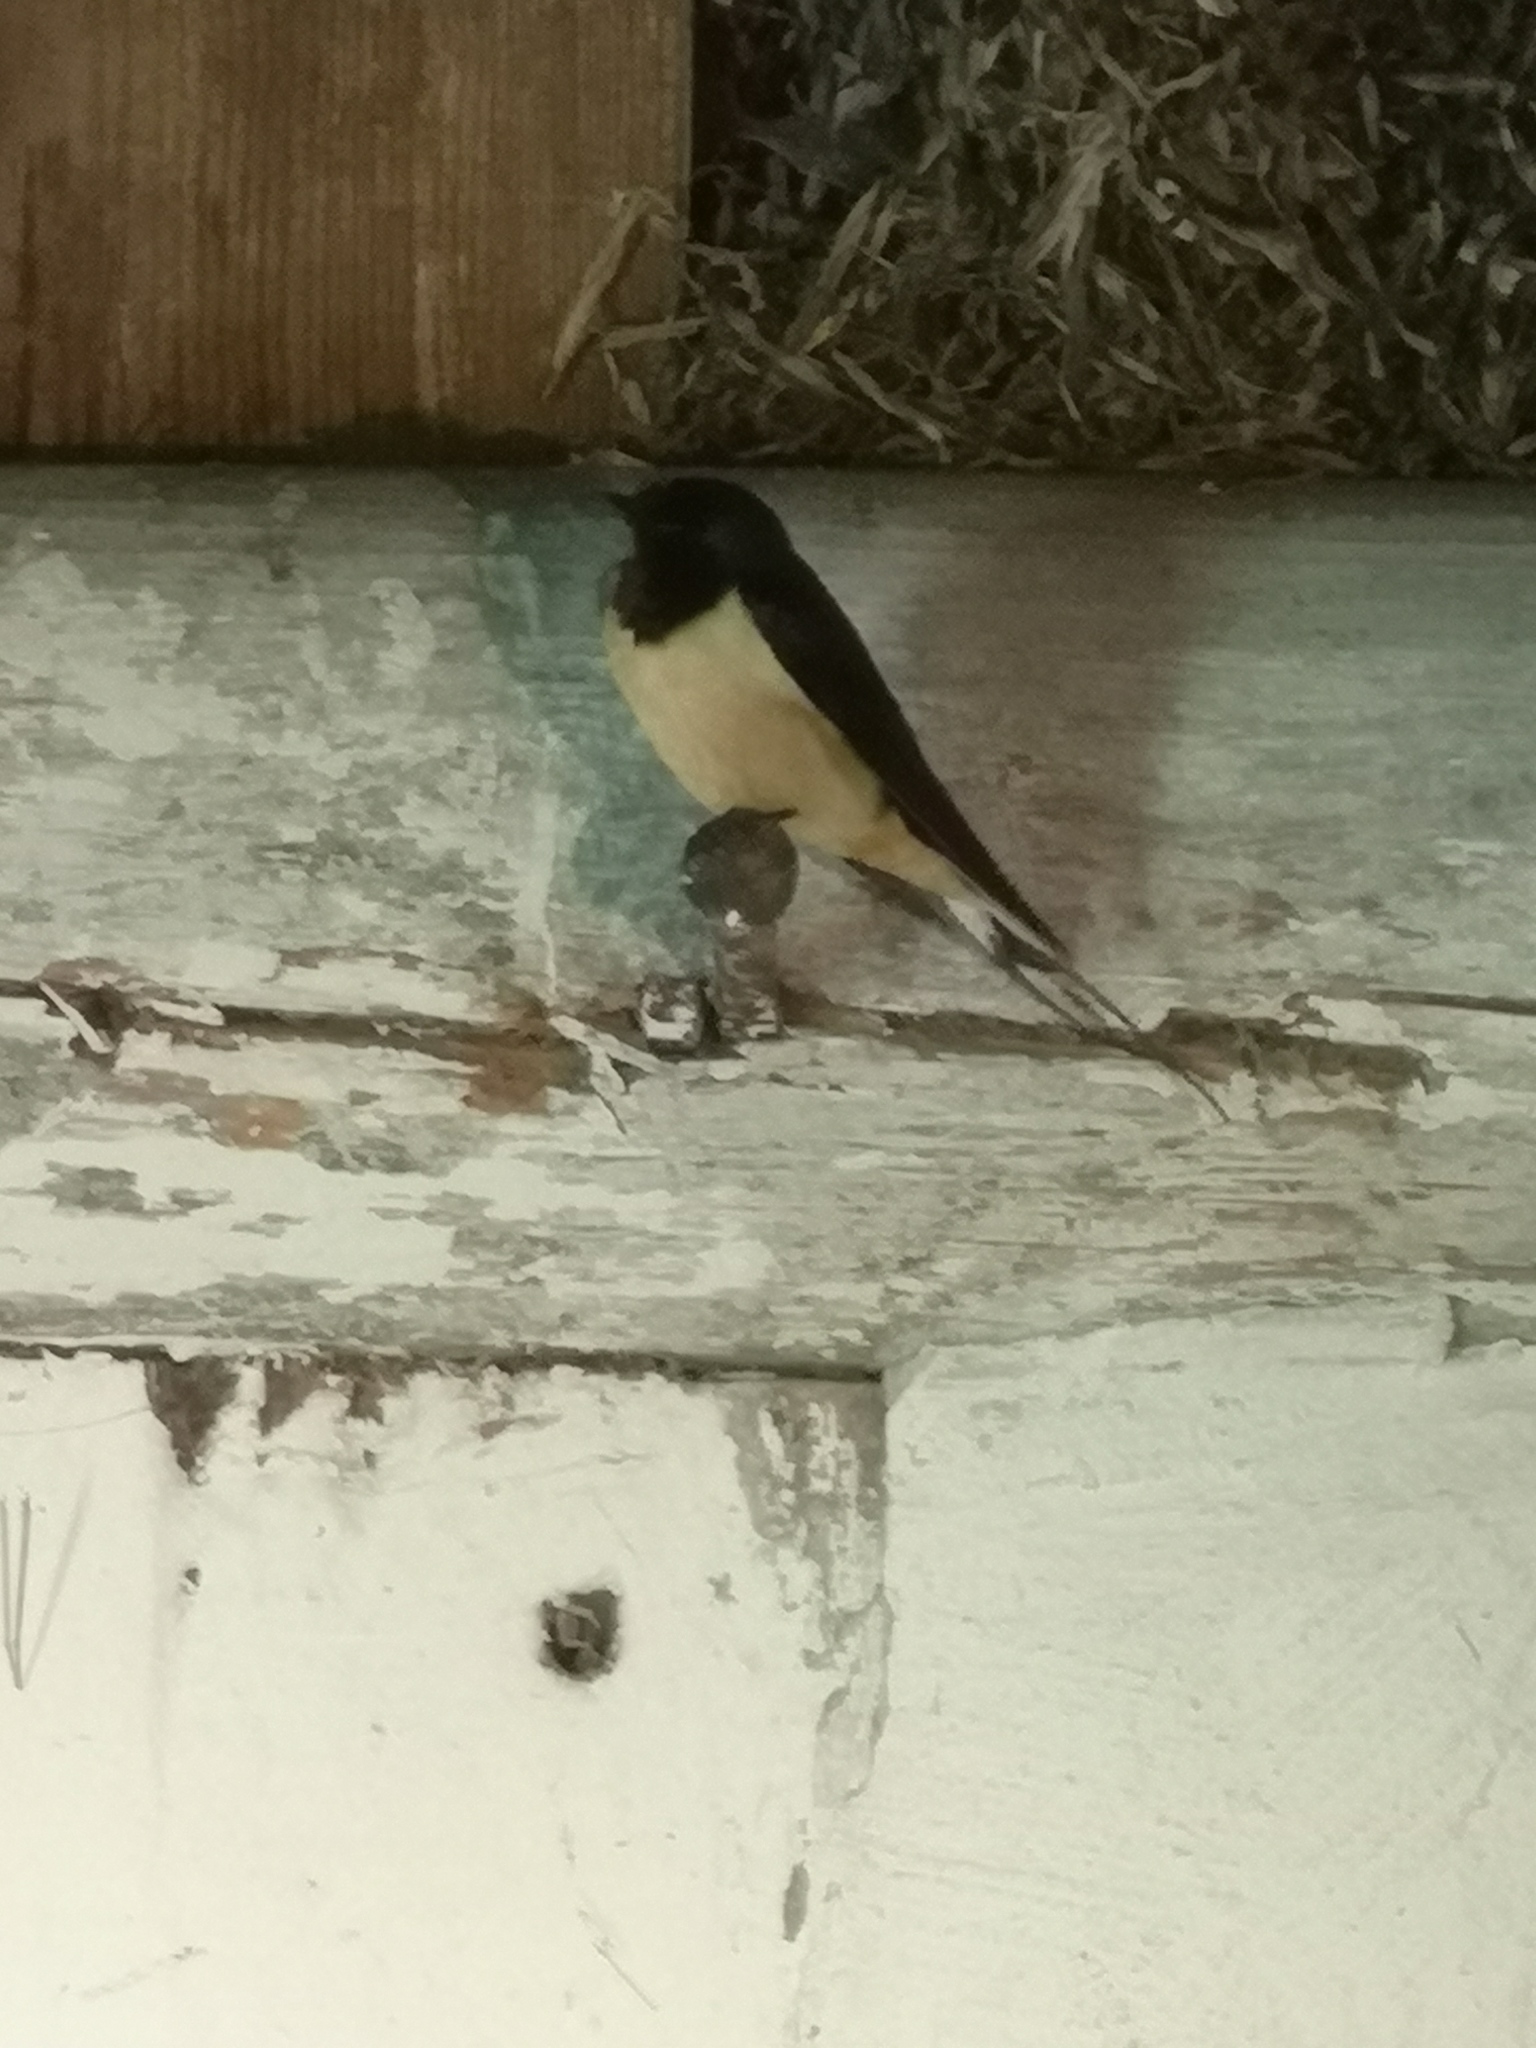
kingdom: Animalia
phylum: Chordata
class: Aves
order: Passeriformes
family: Hirundinidae
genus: Hirundo
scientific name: Hirundo rustica
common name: Barn swallow
